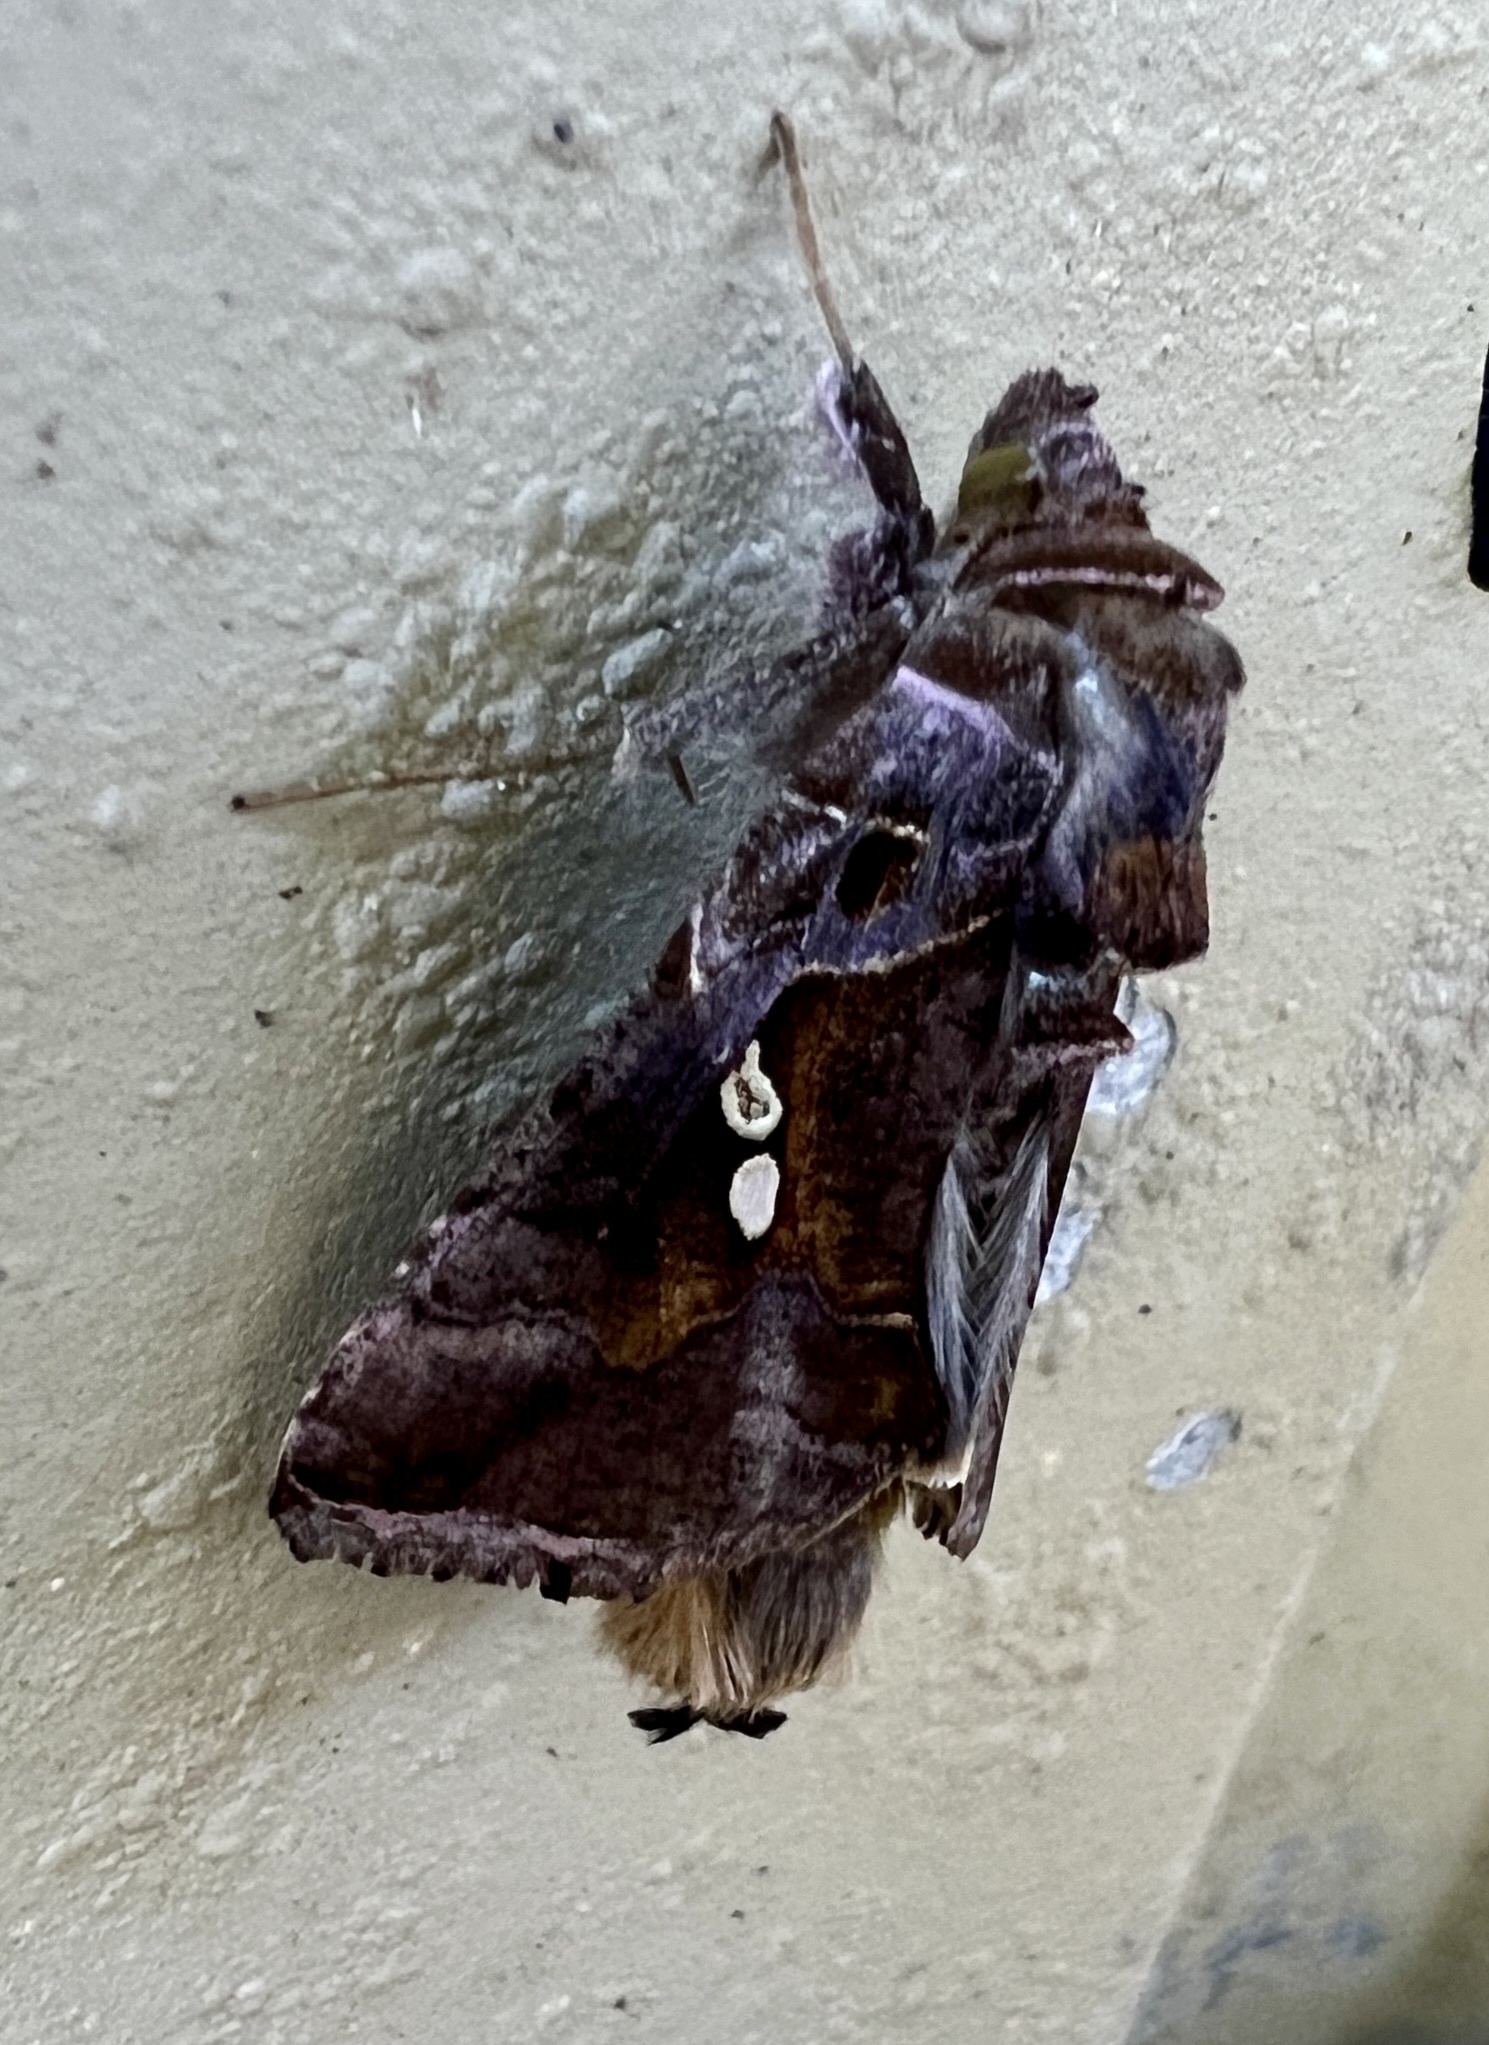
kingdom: Animalia
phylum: Arthropoda
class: Insecta
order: Lepidoptera
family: Noctuidae
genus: Chrysodeixis
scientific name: Chrysodeixis eriosoma
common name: Green garden looper
